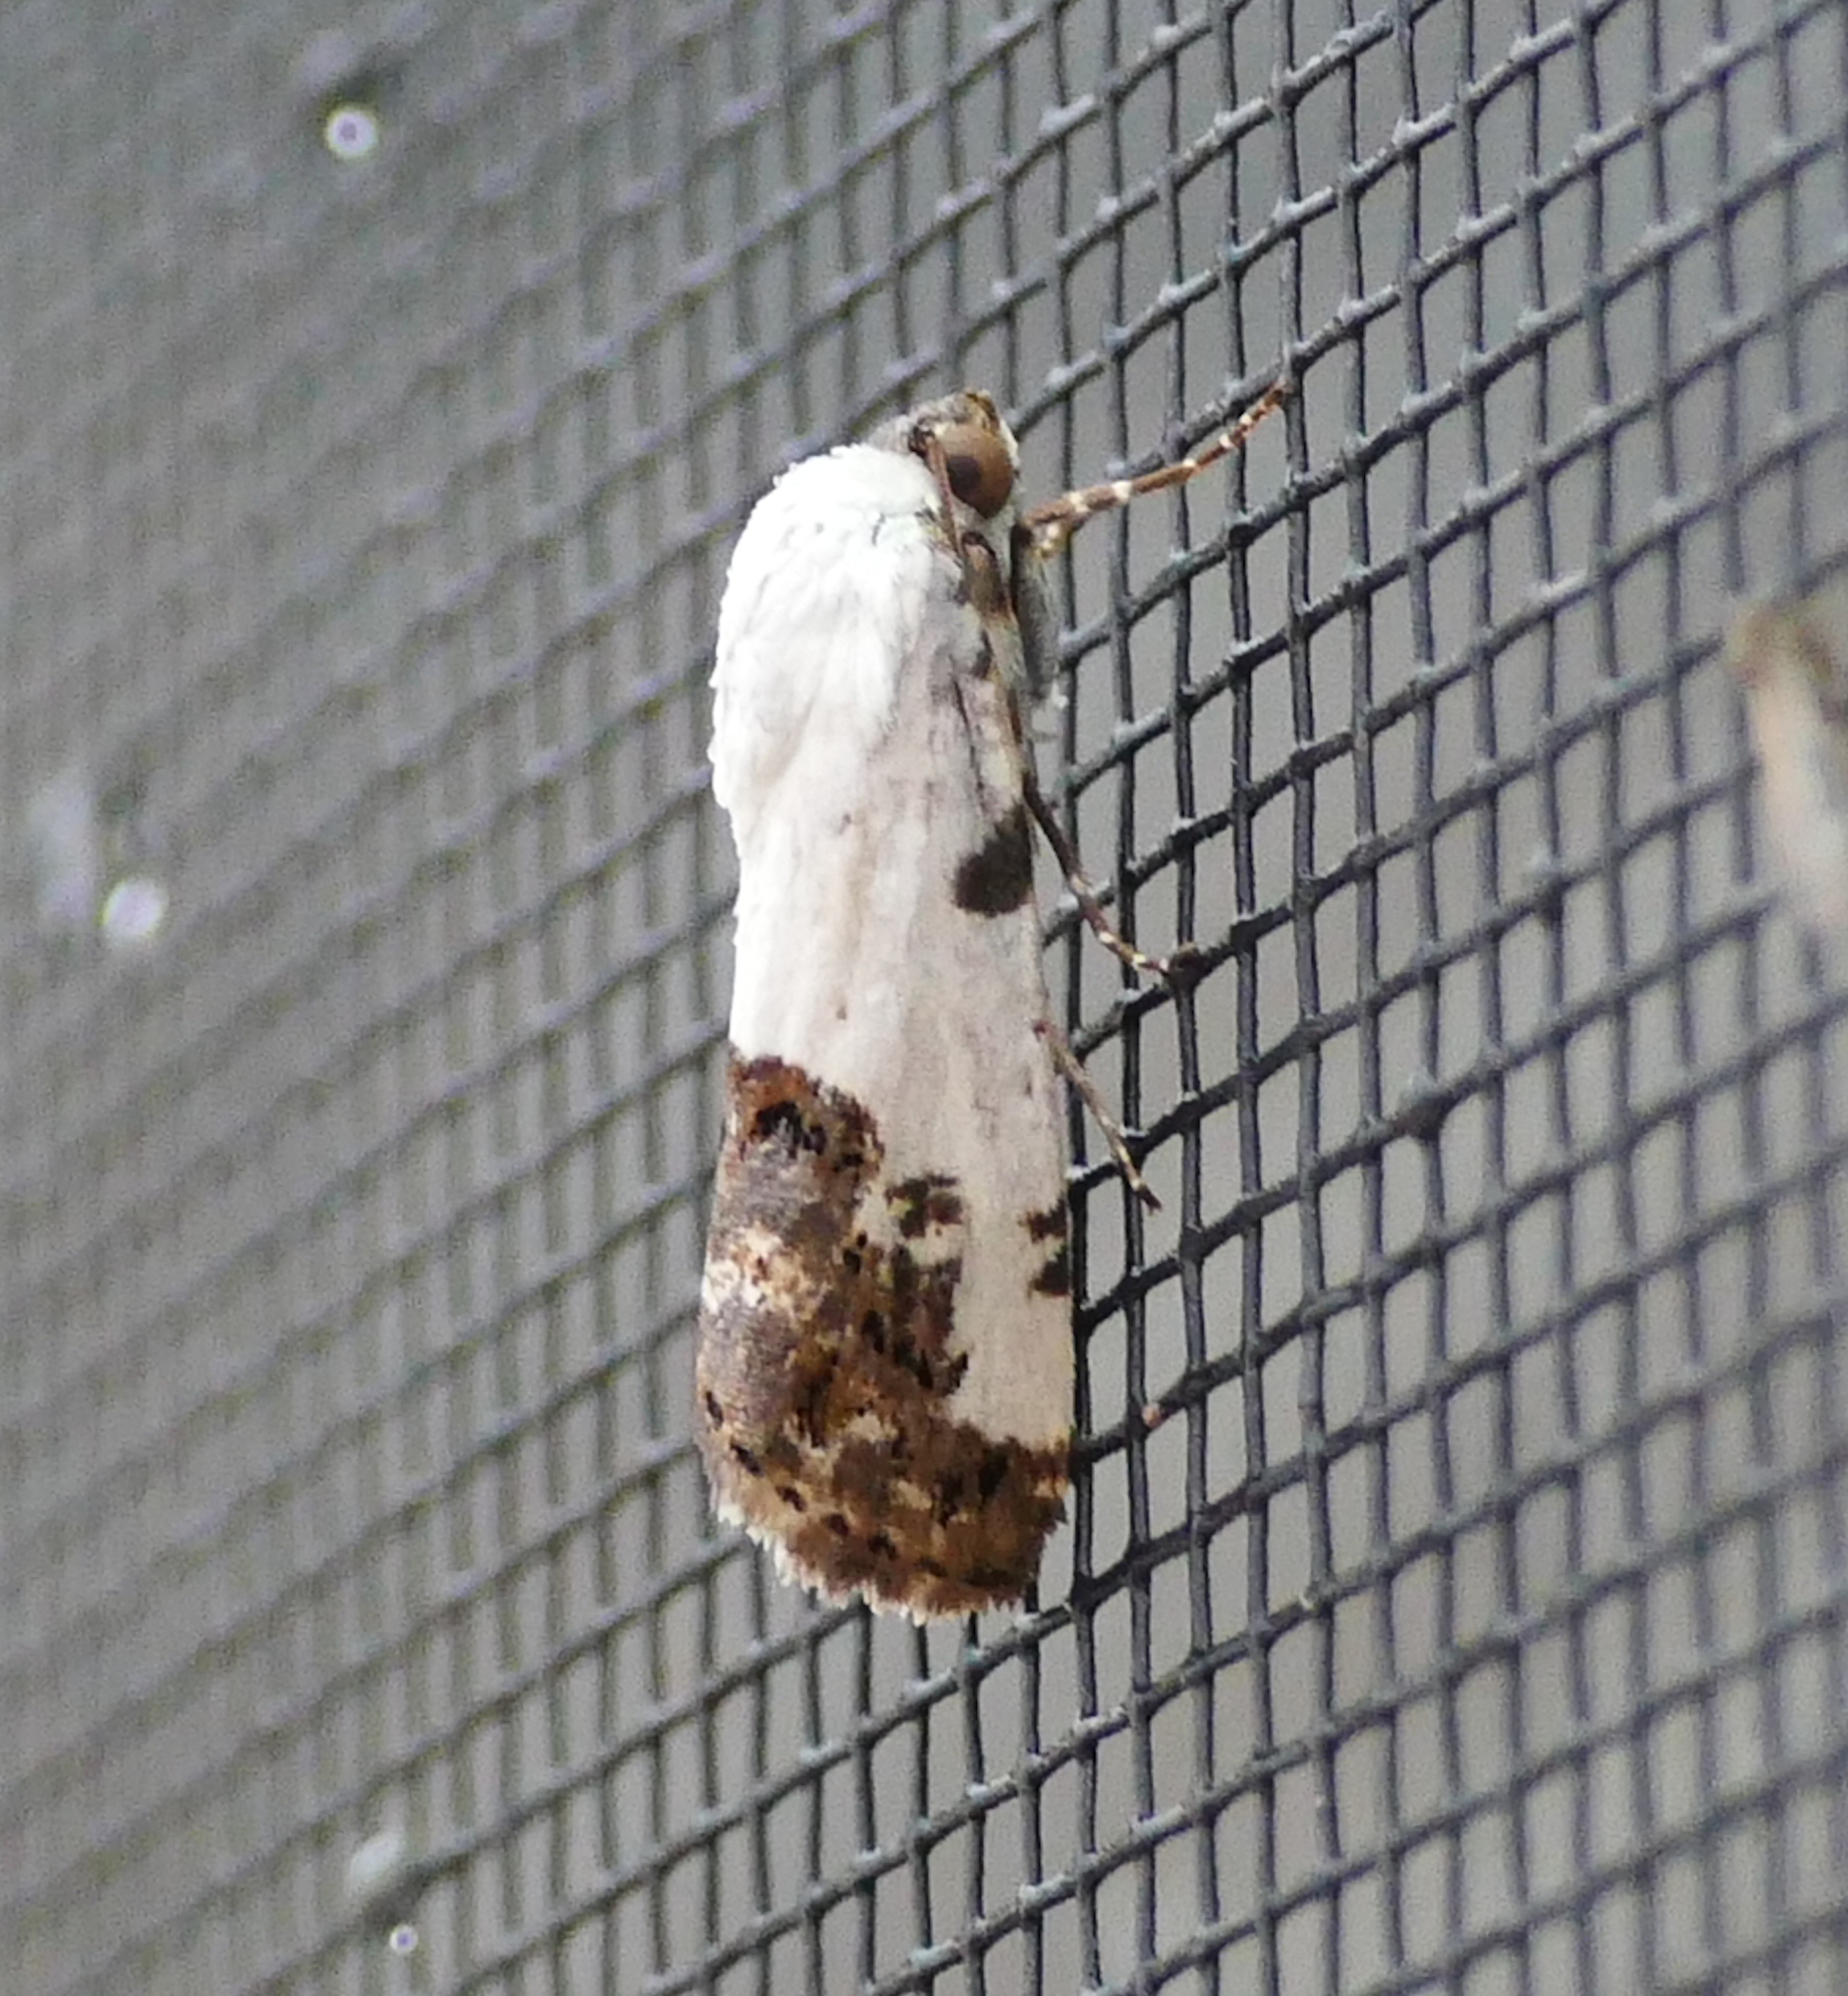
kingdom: Animalia
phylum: Arthropoda
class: Insecta
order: Lepidoptera
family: Noctuidae
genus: Acontia
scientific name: Acontia aprica
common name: Nun
